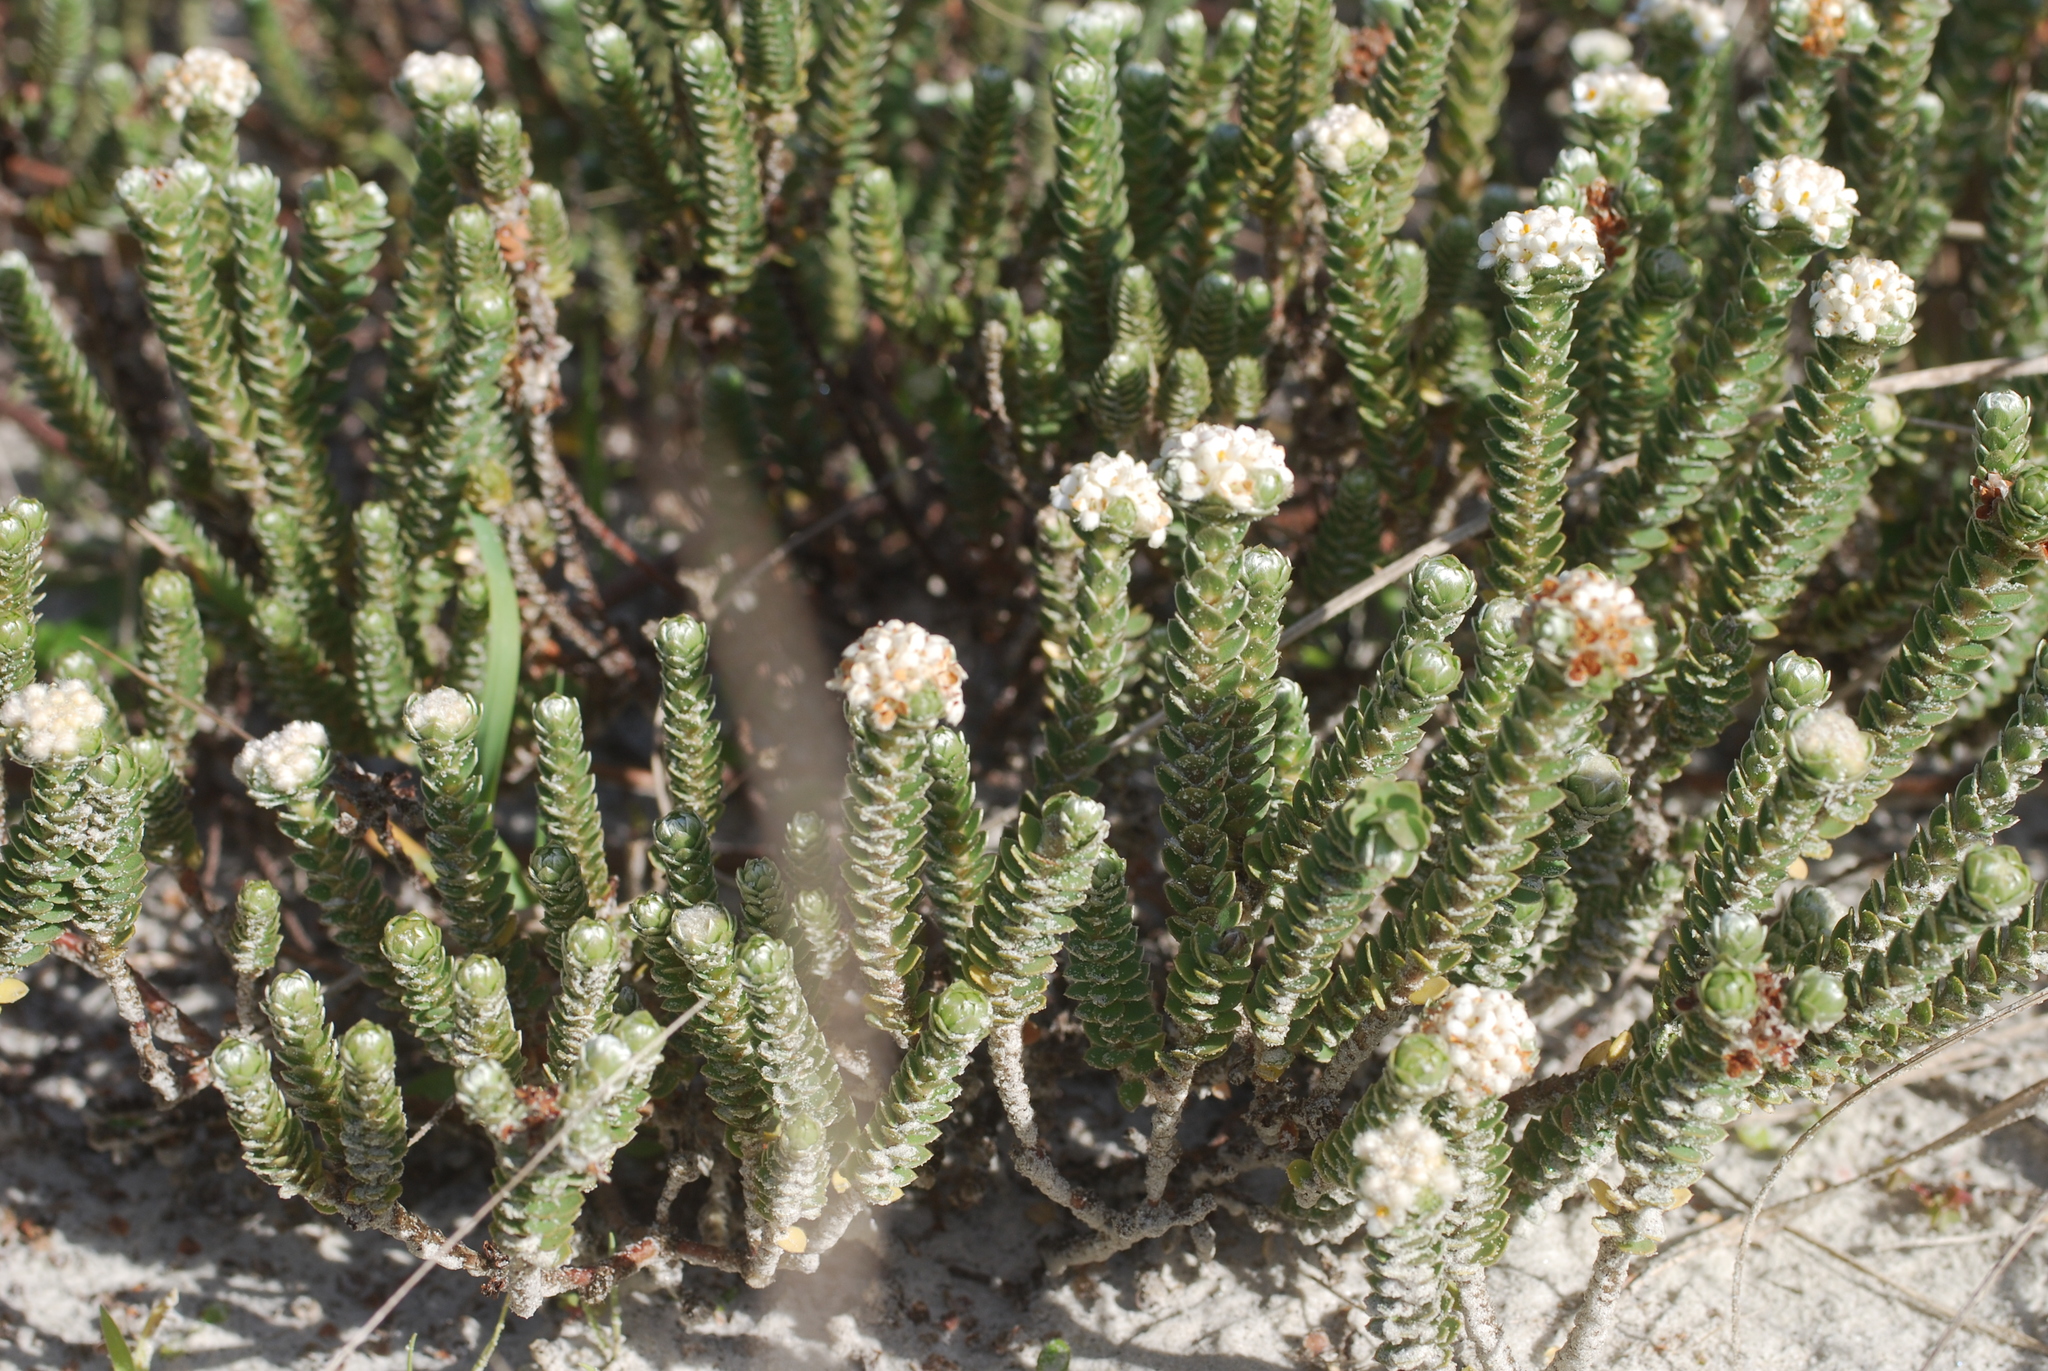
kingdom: Plantae
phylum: Tracheophyta
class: Magnoliopsida
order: Malvales
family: Thymelaeaceae
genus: Pimelea
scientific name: Pimelea villosa
